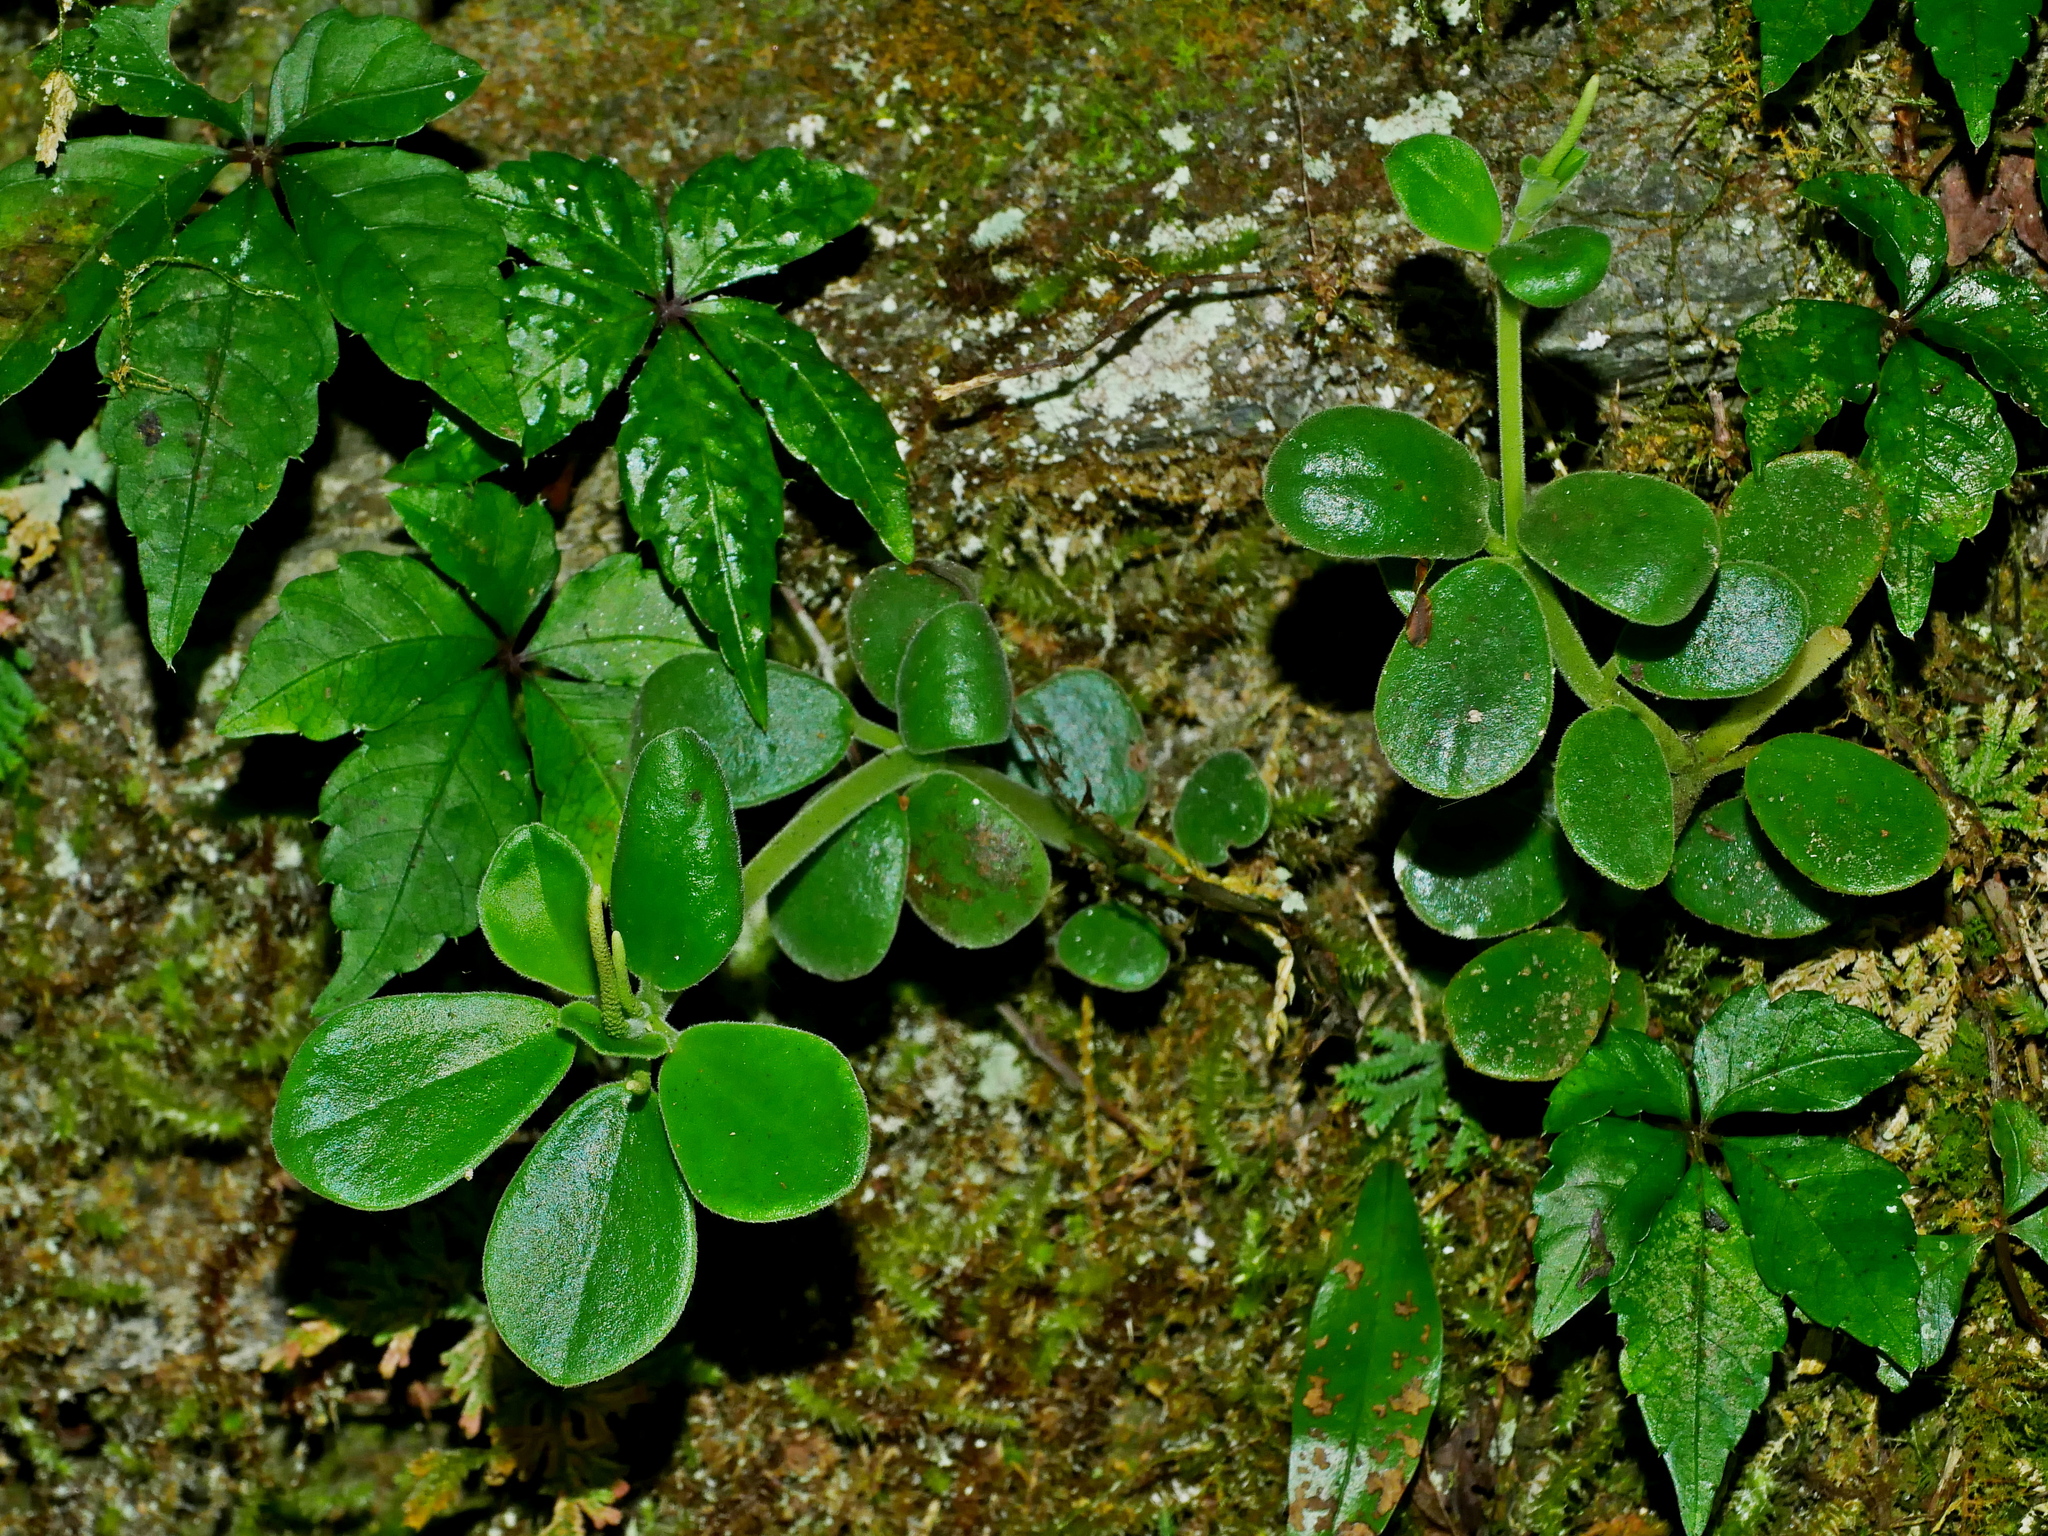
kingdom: Plantae
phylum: Tracheophyta
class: Magnoliopsida
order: Piperales
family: Piperaceae
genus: Peperomia
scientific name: Peperomia japonica
